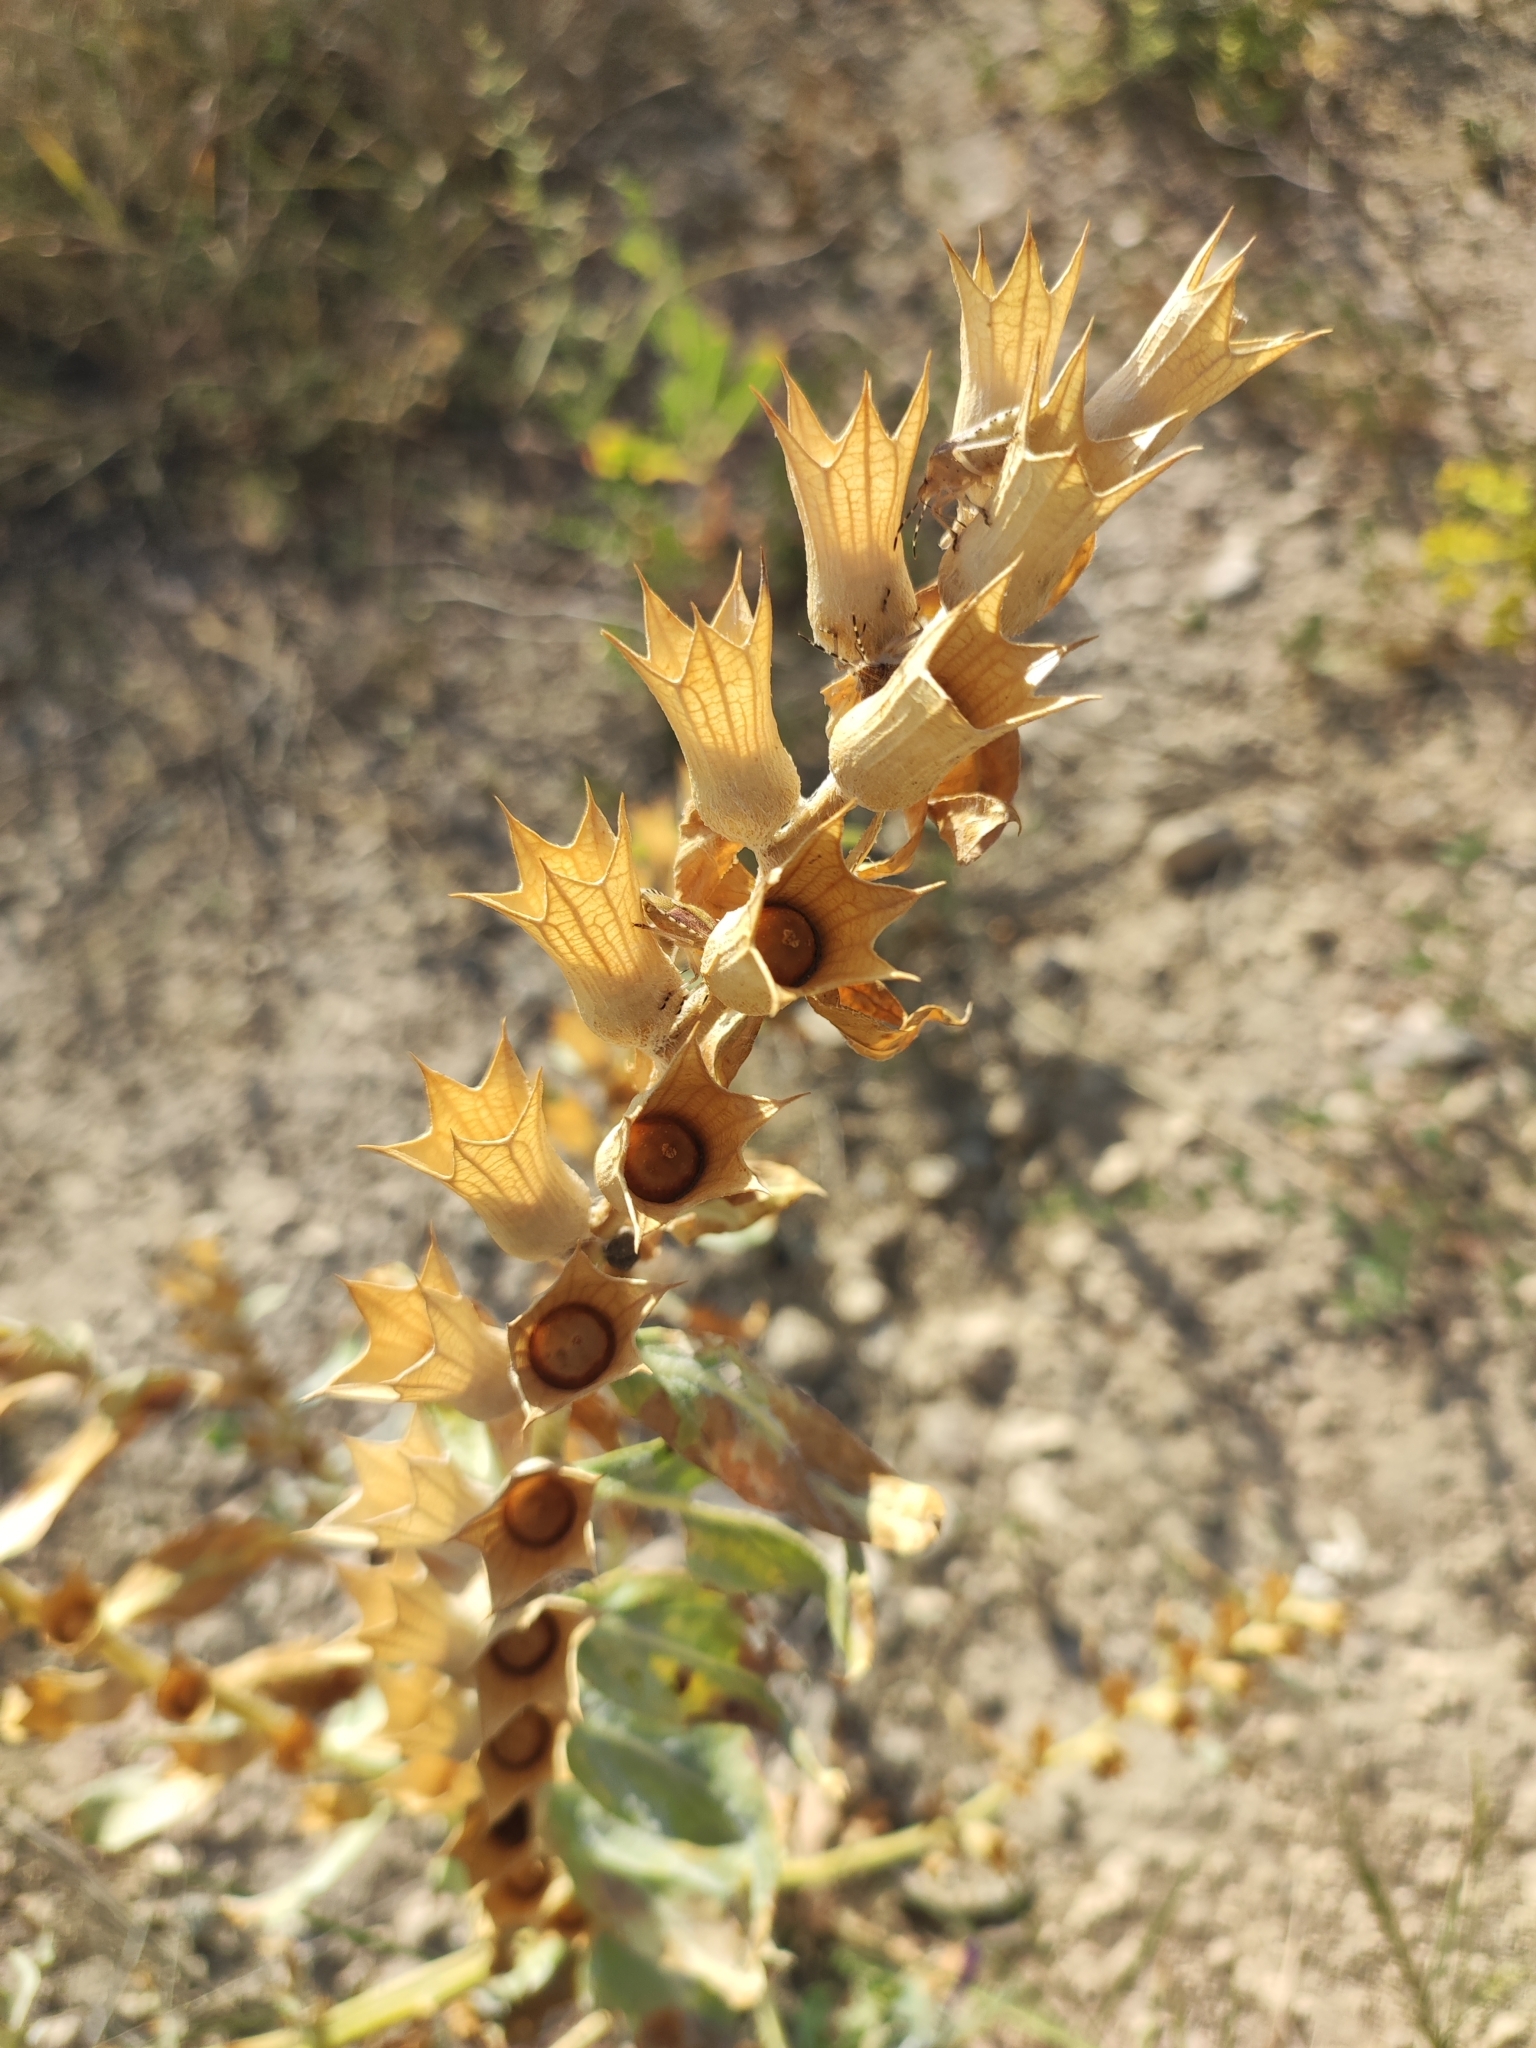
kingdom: Plantae
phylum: Tracheophyta
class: Magnoliopsida
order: Solanales
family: Solanaceae
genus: Hyoscyamus
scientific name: Hyoscyamus niger
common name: Henbane
